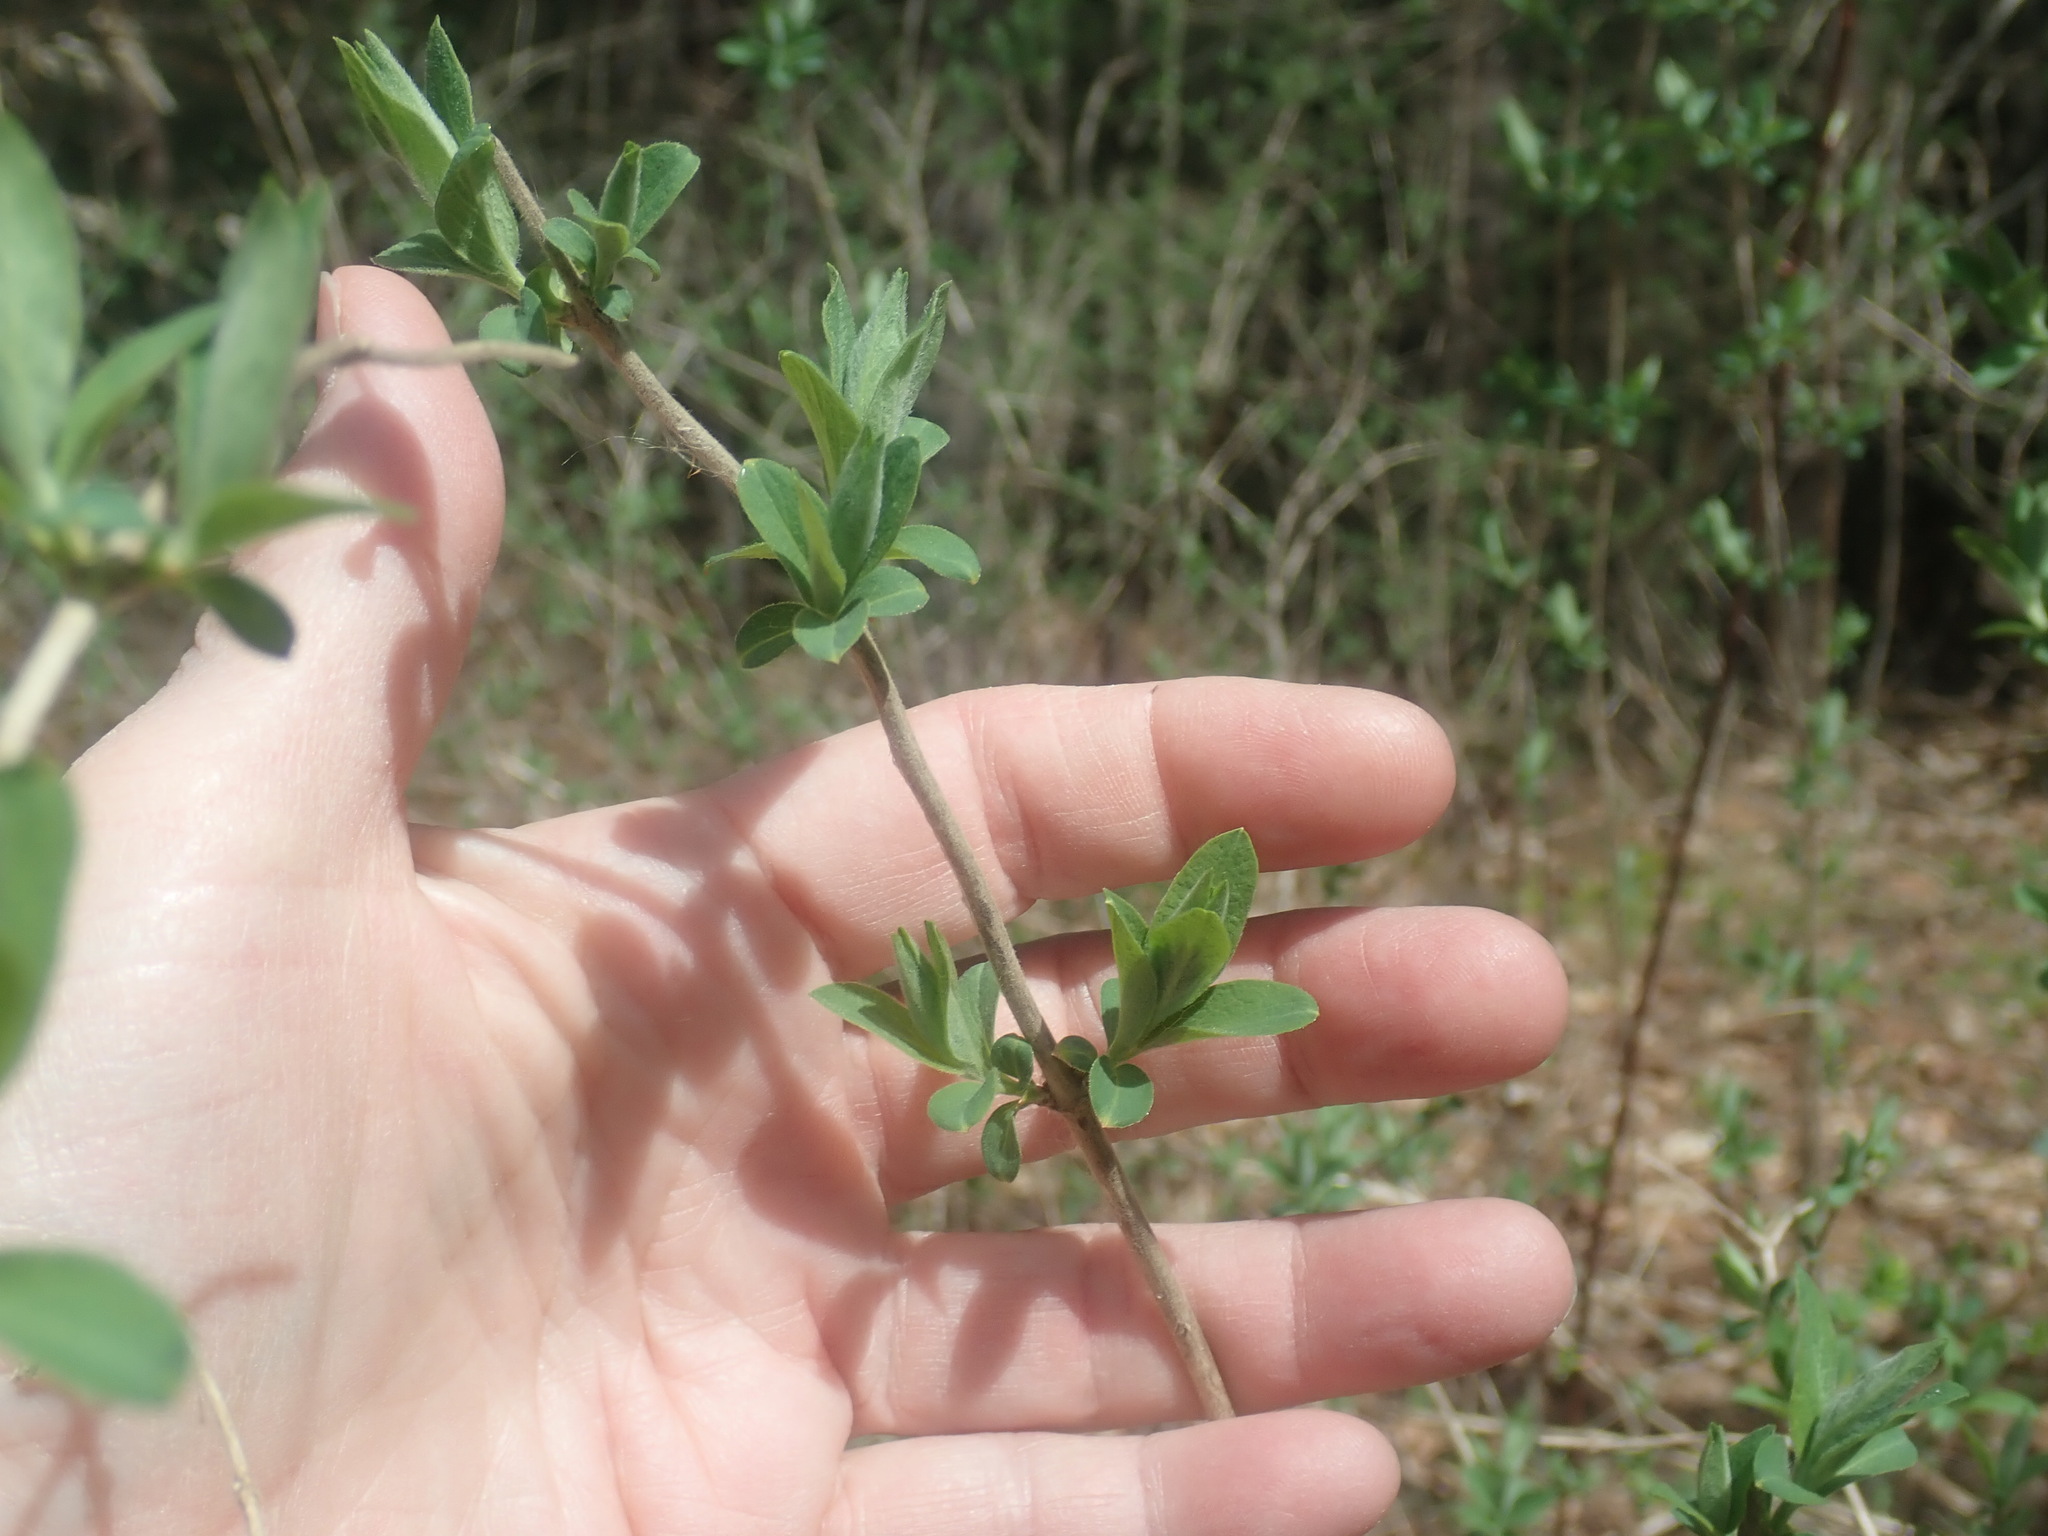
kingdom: Plantae
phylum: Tracheophyta
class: Magnoliopsida
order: Dipsacales
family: Caprifoliaceae
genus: Lonicera
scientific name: Lonicera
